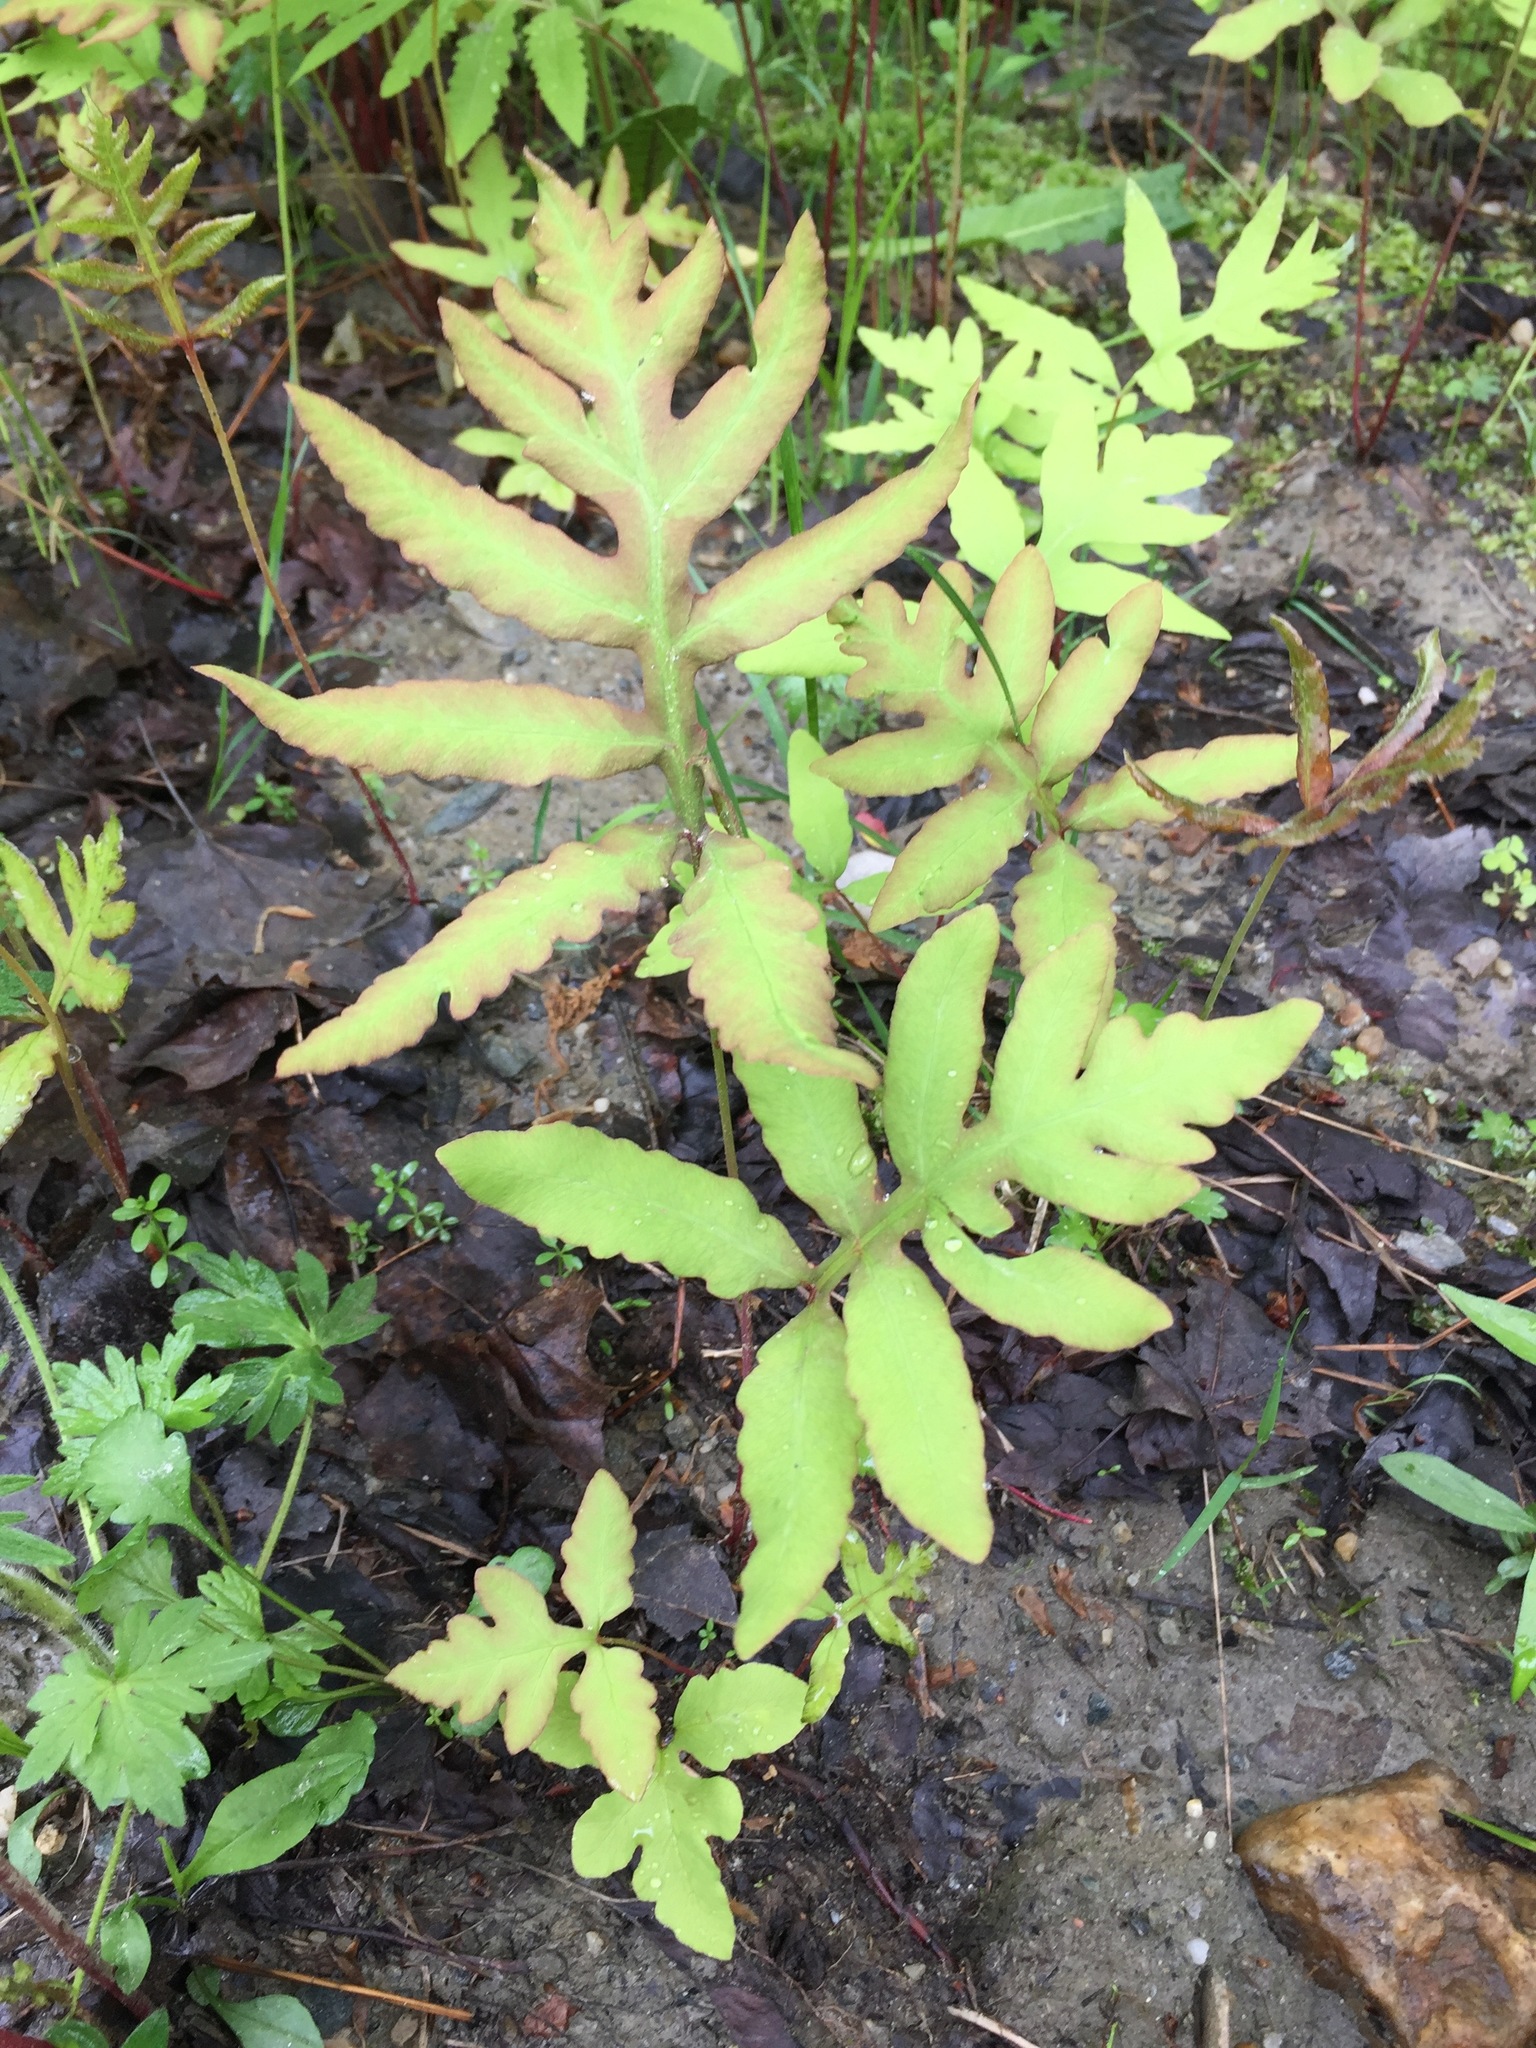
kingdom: Plantae
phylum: Tracheophyta
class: Polypodiopsida
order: Polypodiales
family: Onocleaceae
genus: Onoclea
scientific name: Onoclea sensibilis
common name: Sensitive fern
